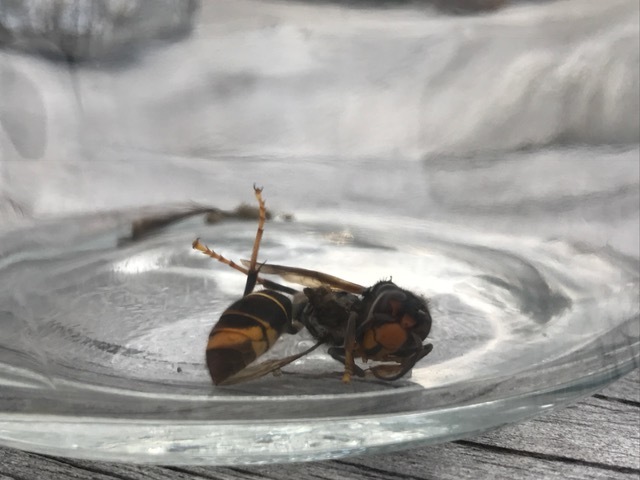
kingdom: Animalia
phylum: Arthropoda
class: Insecta
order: Hymenoptera
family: Vespidae
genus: Vespa
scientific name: Vespa velutina
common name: Asian hornet
